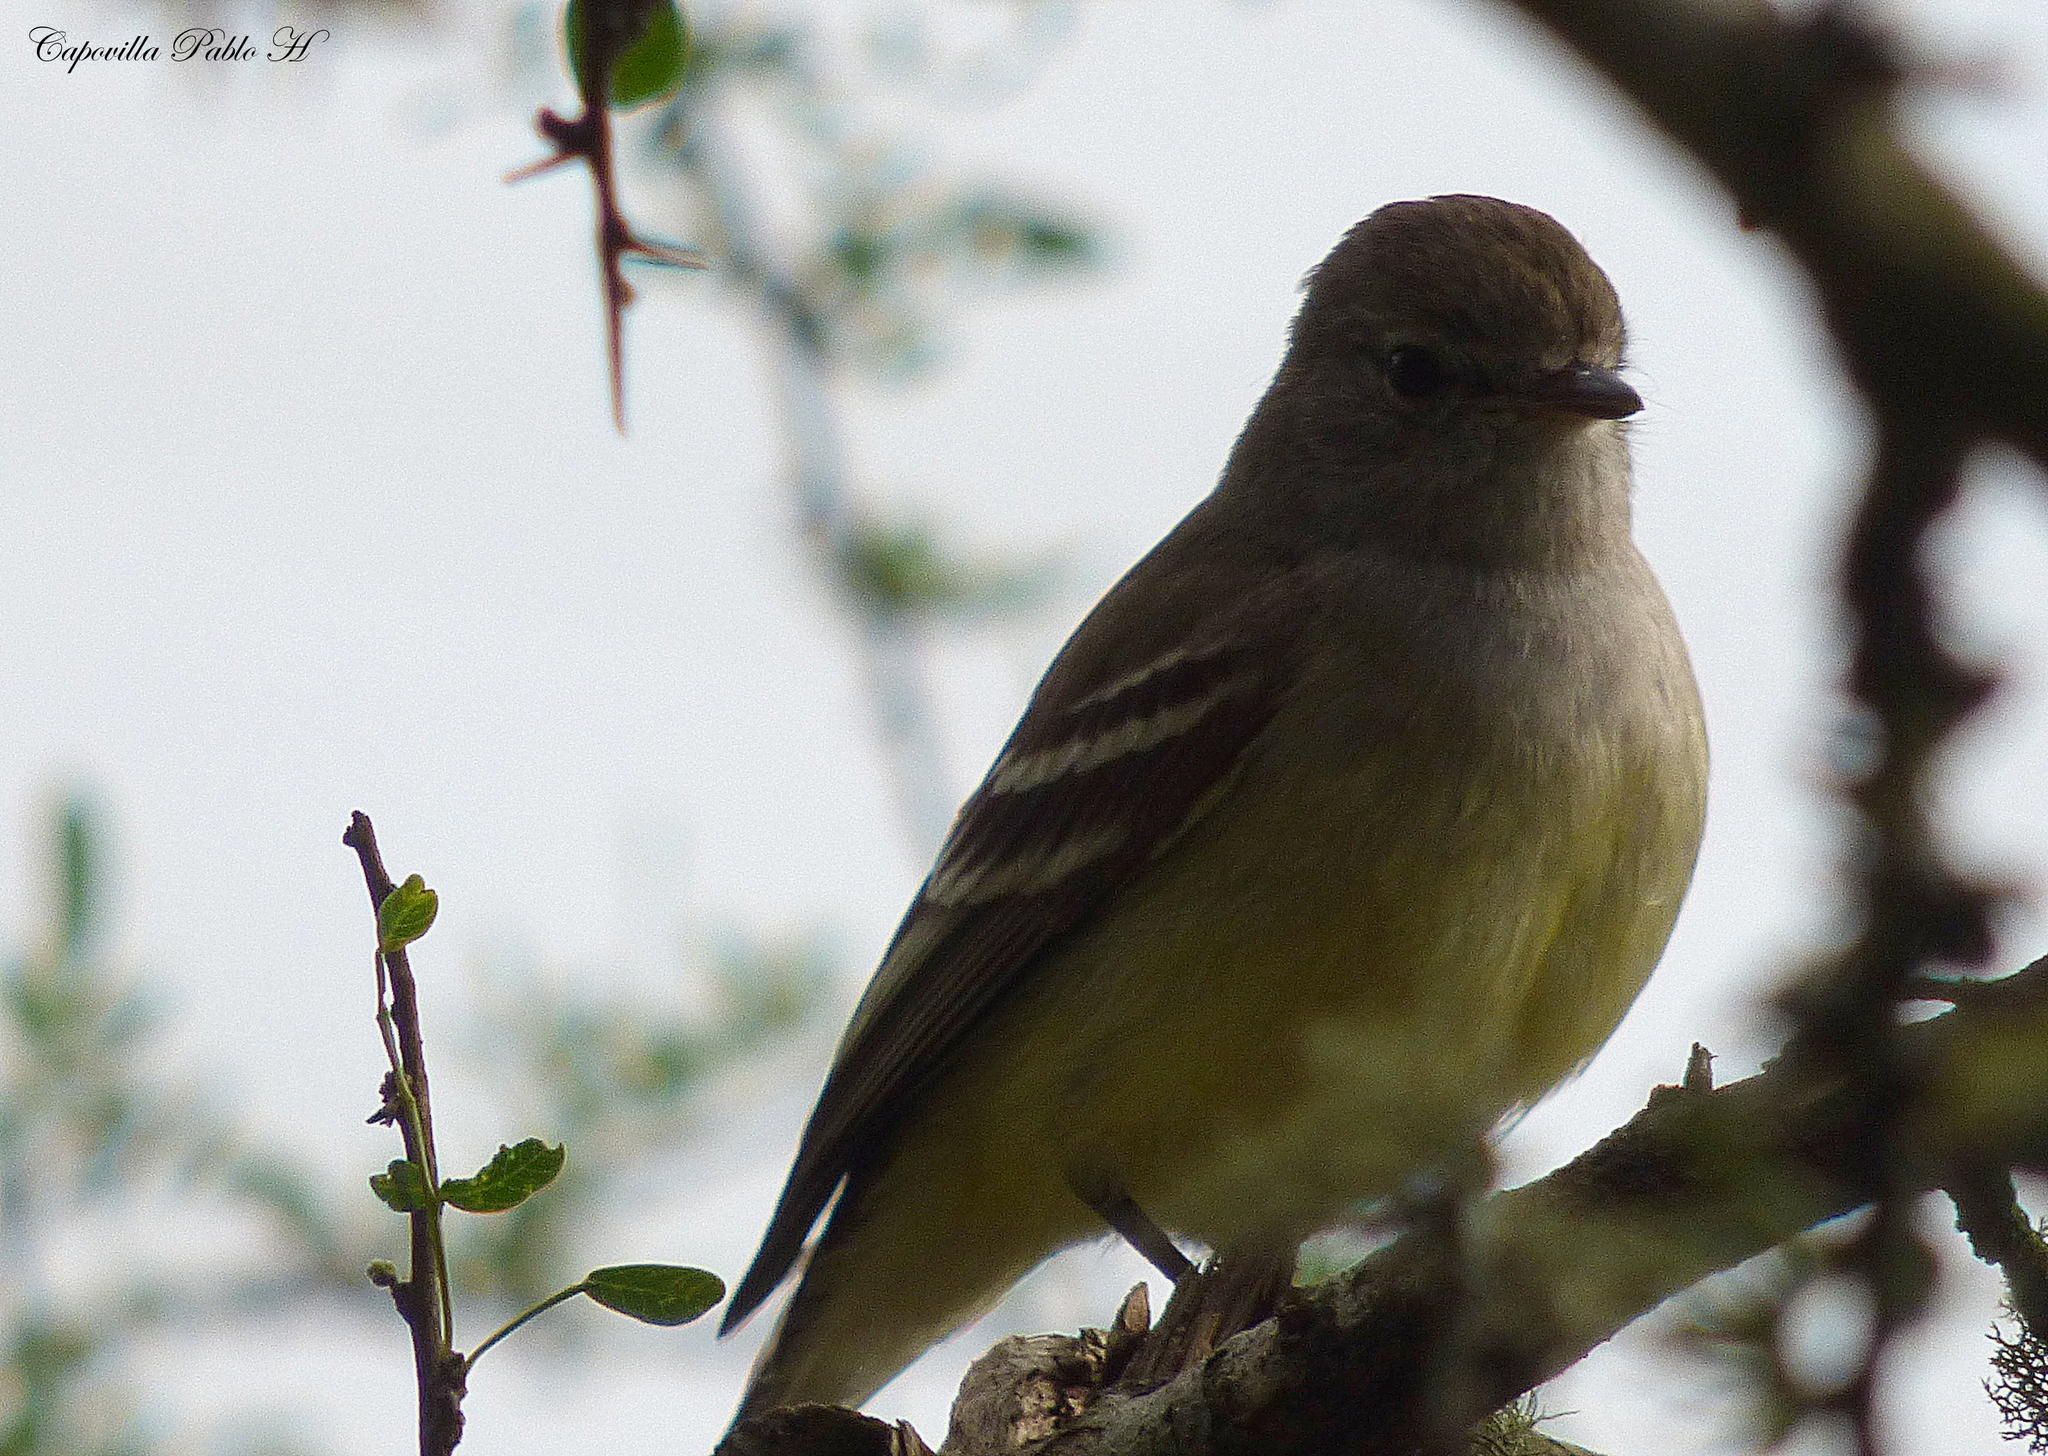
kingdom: Animalia
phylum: Chordata
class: Aves
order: Passeriformes
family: Tyrannidae
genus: Sublegatus
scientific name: Sublegatus modestus
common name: Southern scrub flycatcher
